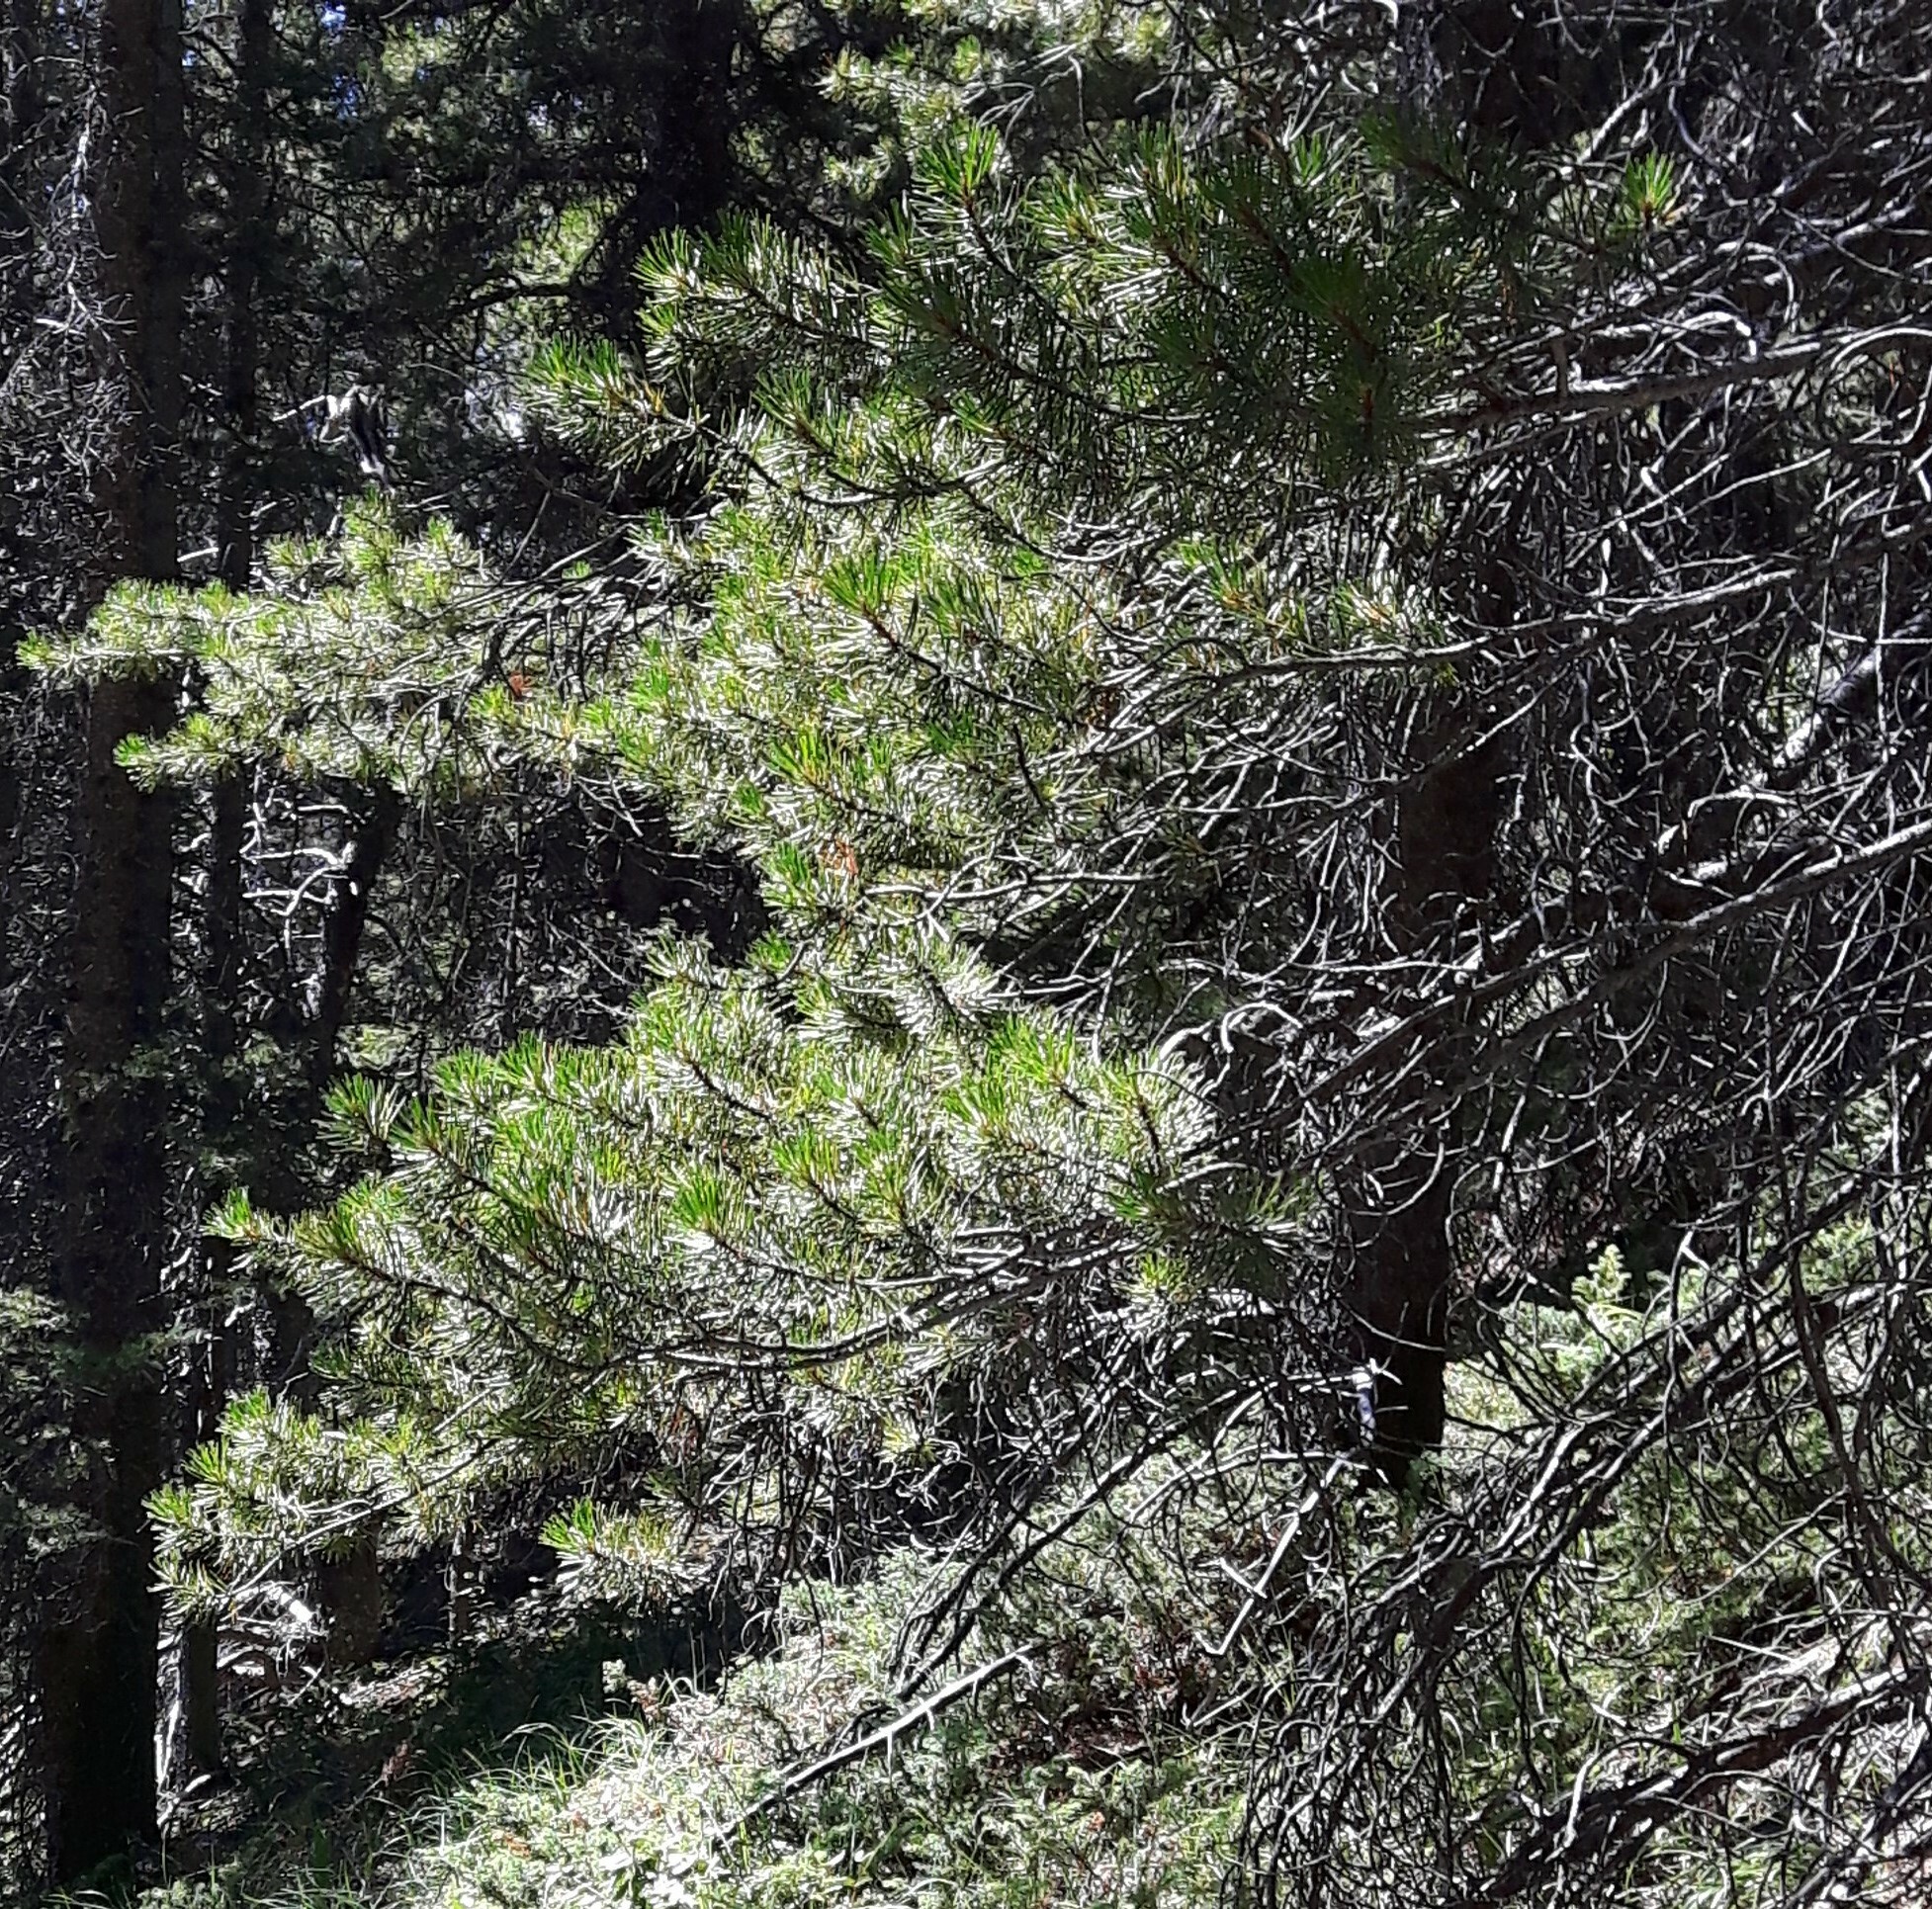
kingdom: Plantae
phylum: Tracheophyta
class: Pinopsida
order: Pinales
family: Pinaceae
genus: Pinus
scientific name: Pinus contorta
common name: Lodgepole pine
